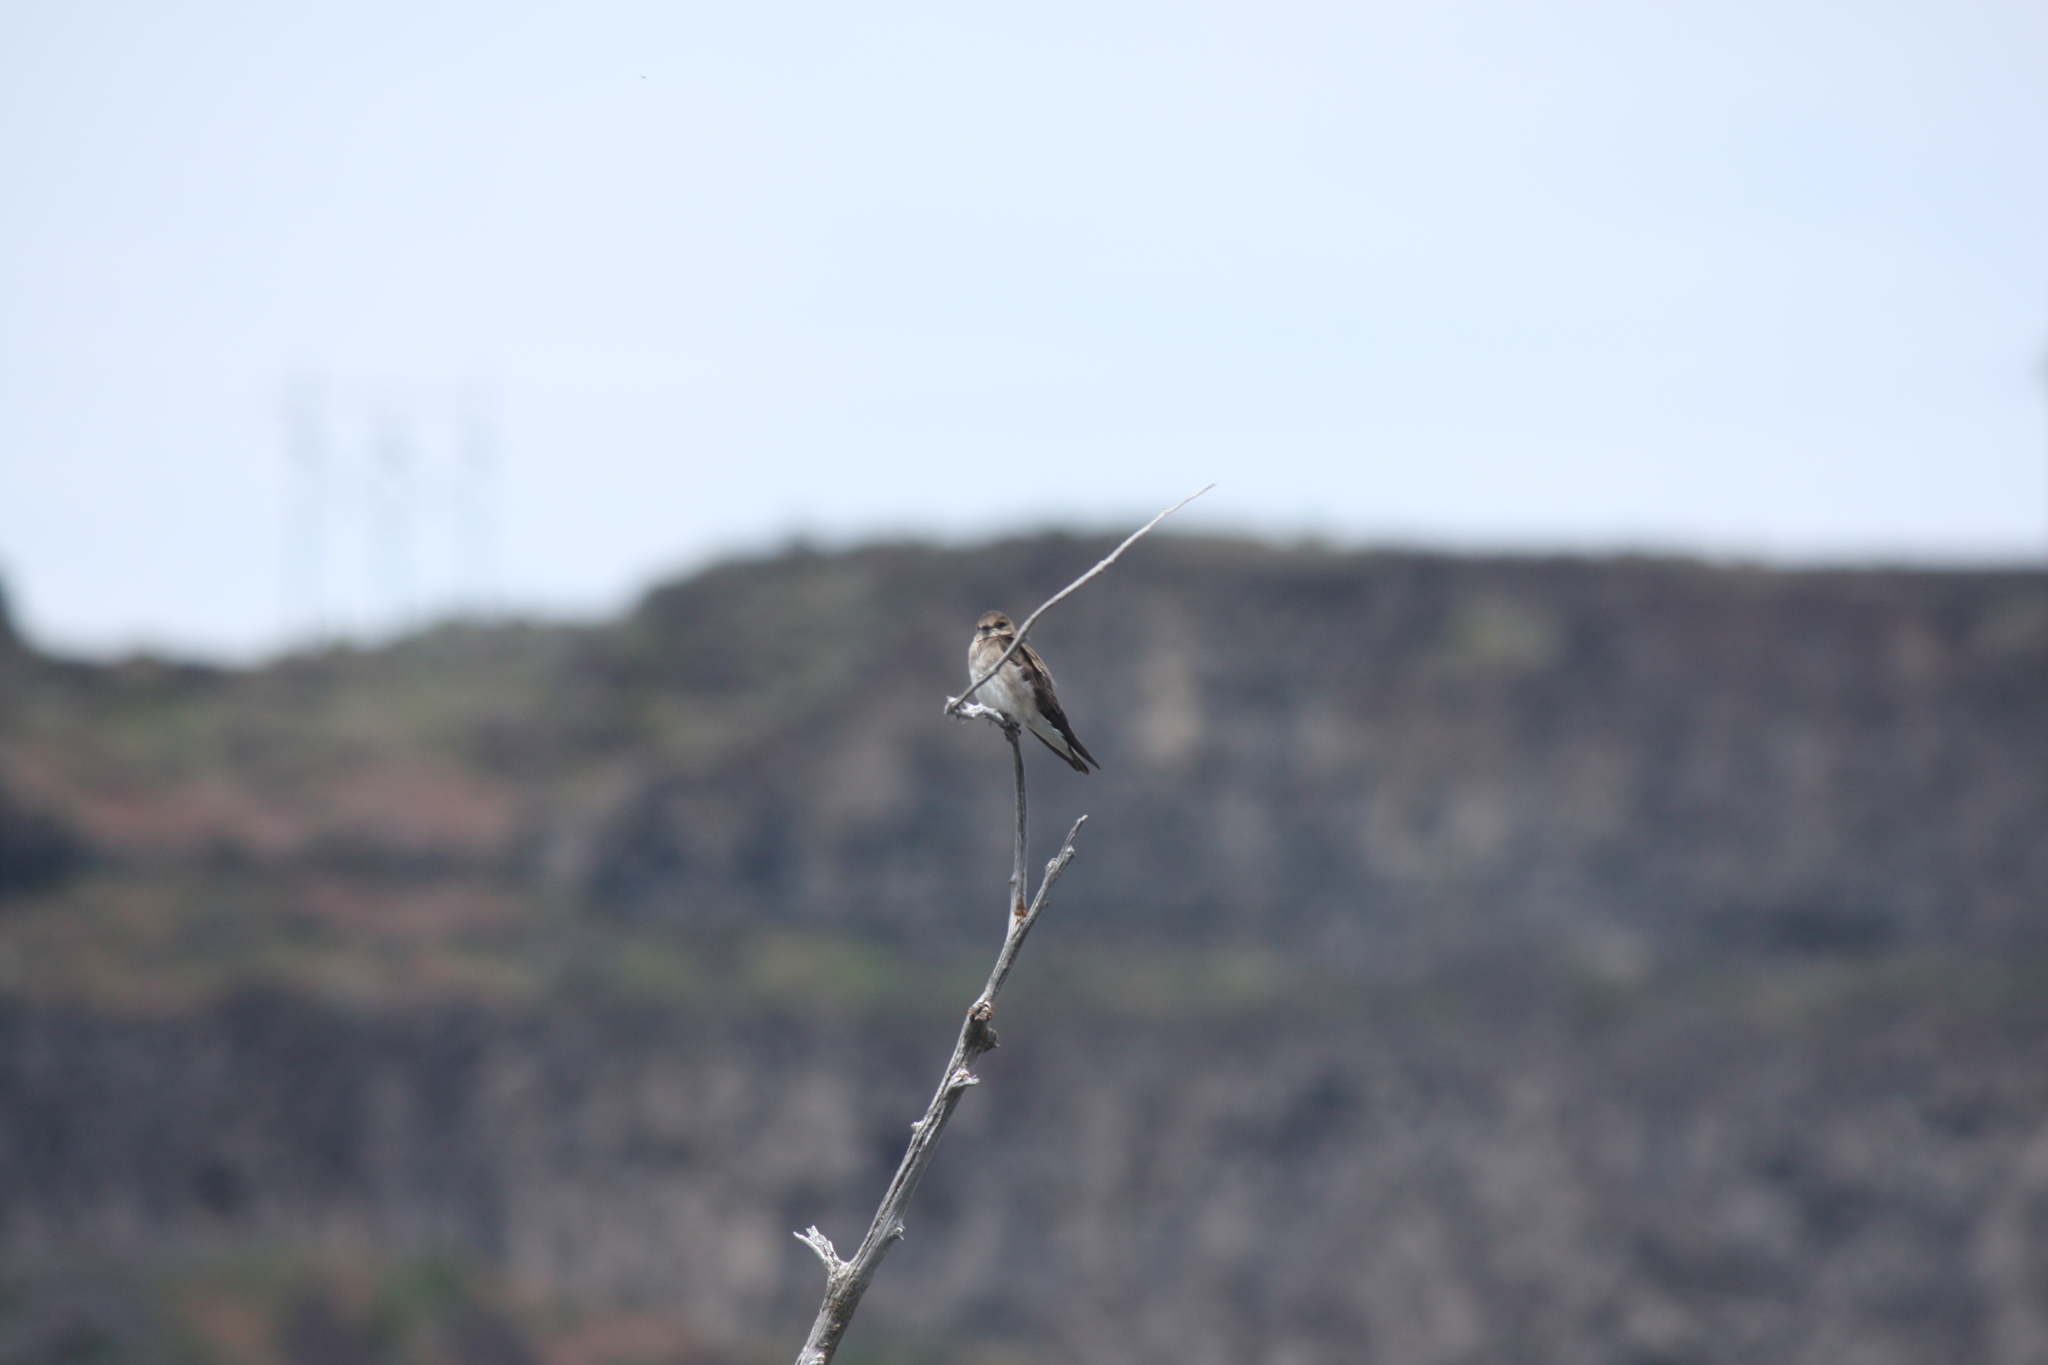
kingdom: Animalia
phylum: Chordata
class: Aves
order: Passeriformes
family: Hirundinidae
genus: Stelgidopteryx
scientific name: Stelgidopteryx serripennis
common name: Northern rough-winged swallow
